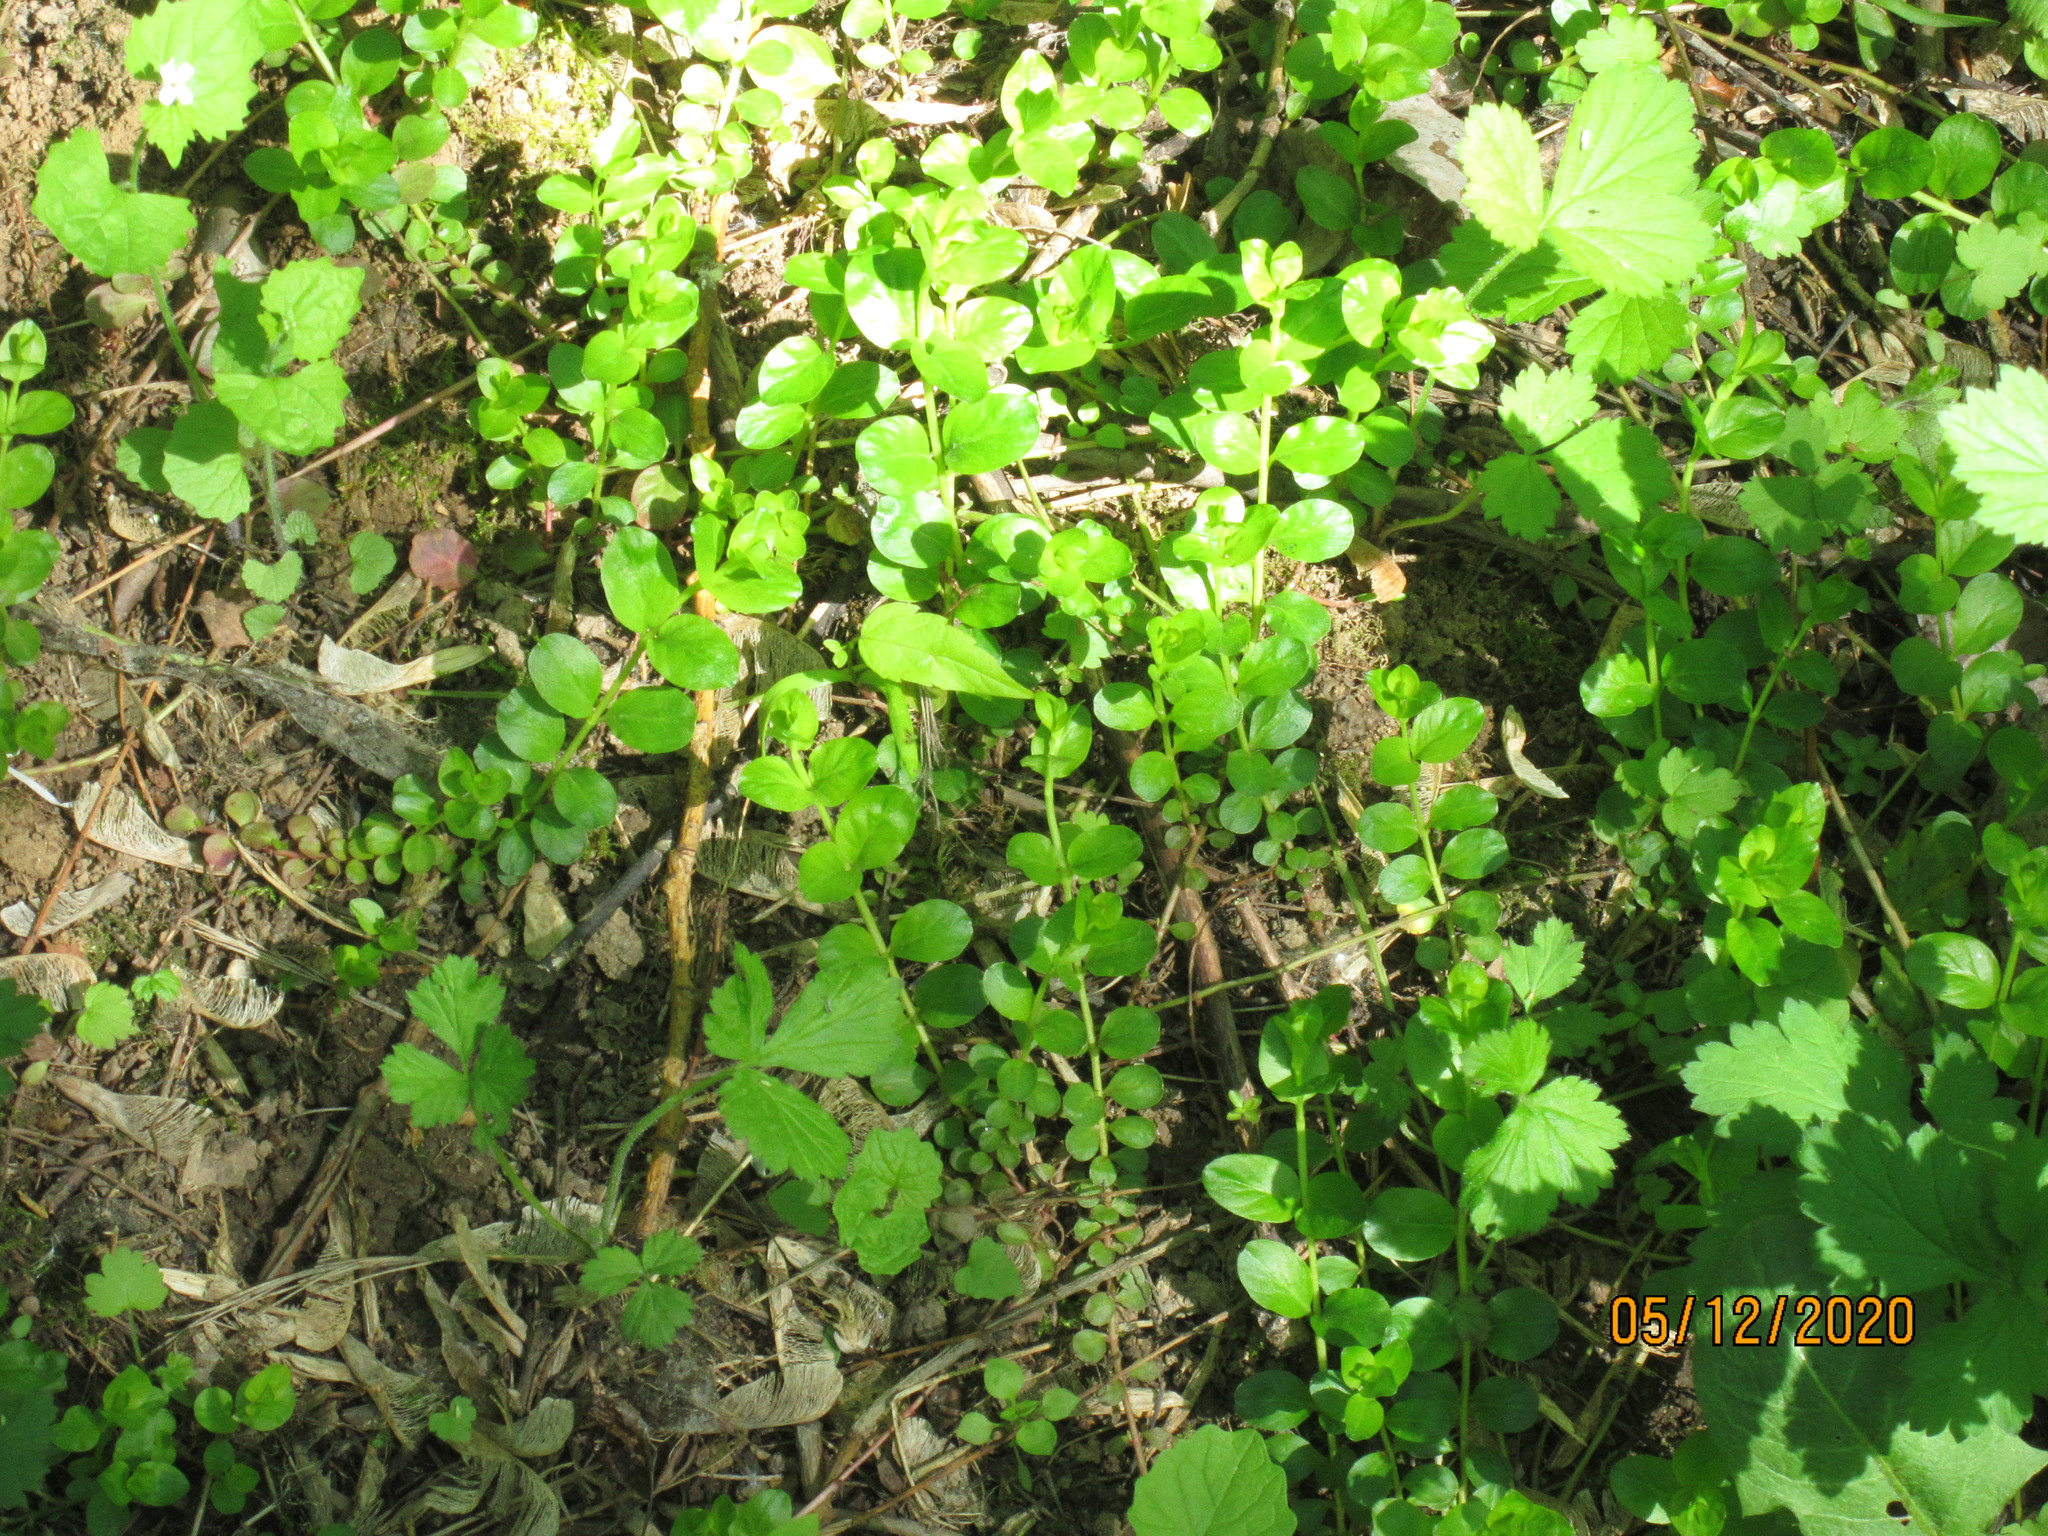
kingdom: Plantae
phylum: Tracheophyta
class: Magnoliopsida
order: Ericales
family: Primulaceae
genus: Lysimachia
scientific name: Lysimachia nummularia
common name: Moneywort
